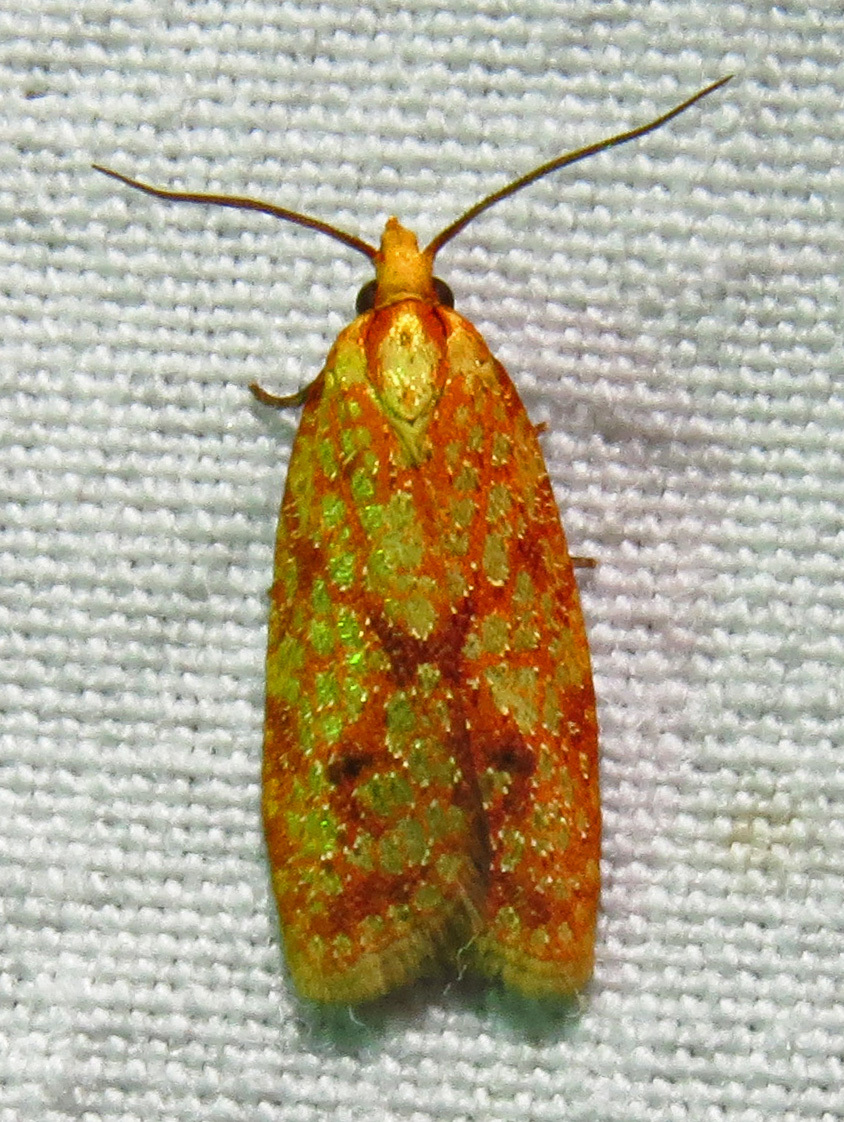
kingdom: Animalia
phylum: Arthropoda
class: Insecta
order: Lepidoptera
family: Tortricidae
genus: Sparganothis
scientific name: Sparganothis sulfureana
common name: Sparganothis fruitworm moth
